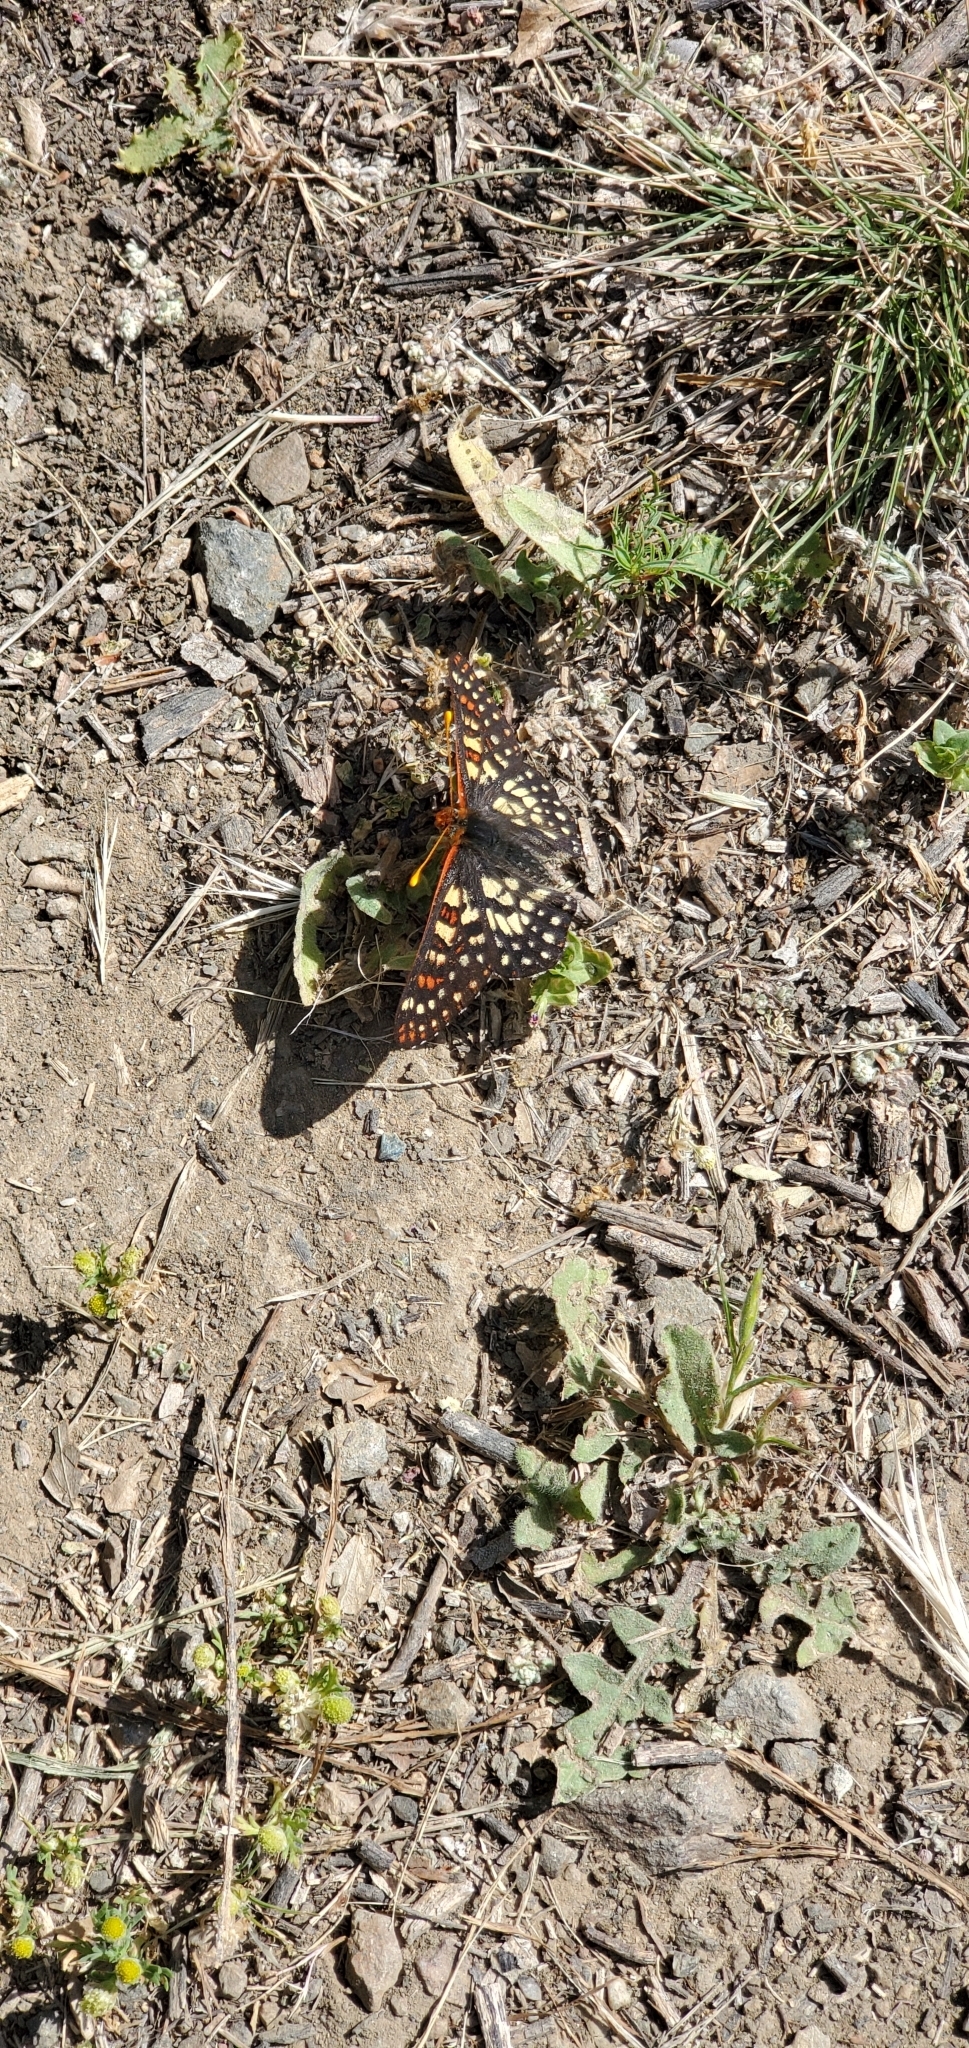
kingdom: Animalia
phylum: Arthropoda
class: Insecta
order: Lepidoptera
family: Nymphalidae
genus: Occidryas
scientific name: Occidryas chalcedona
